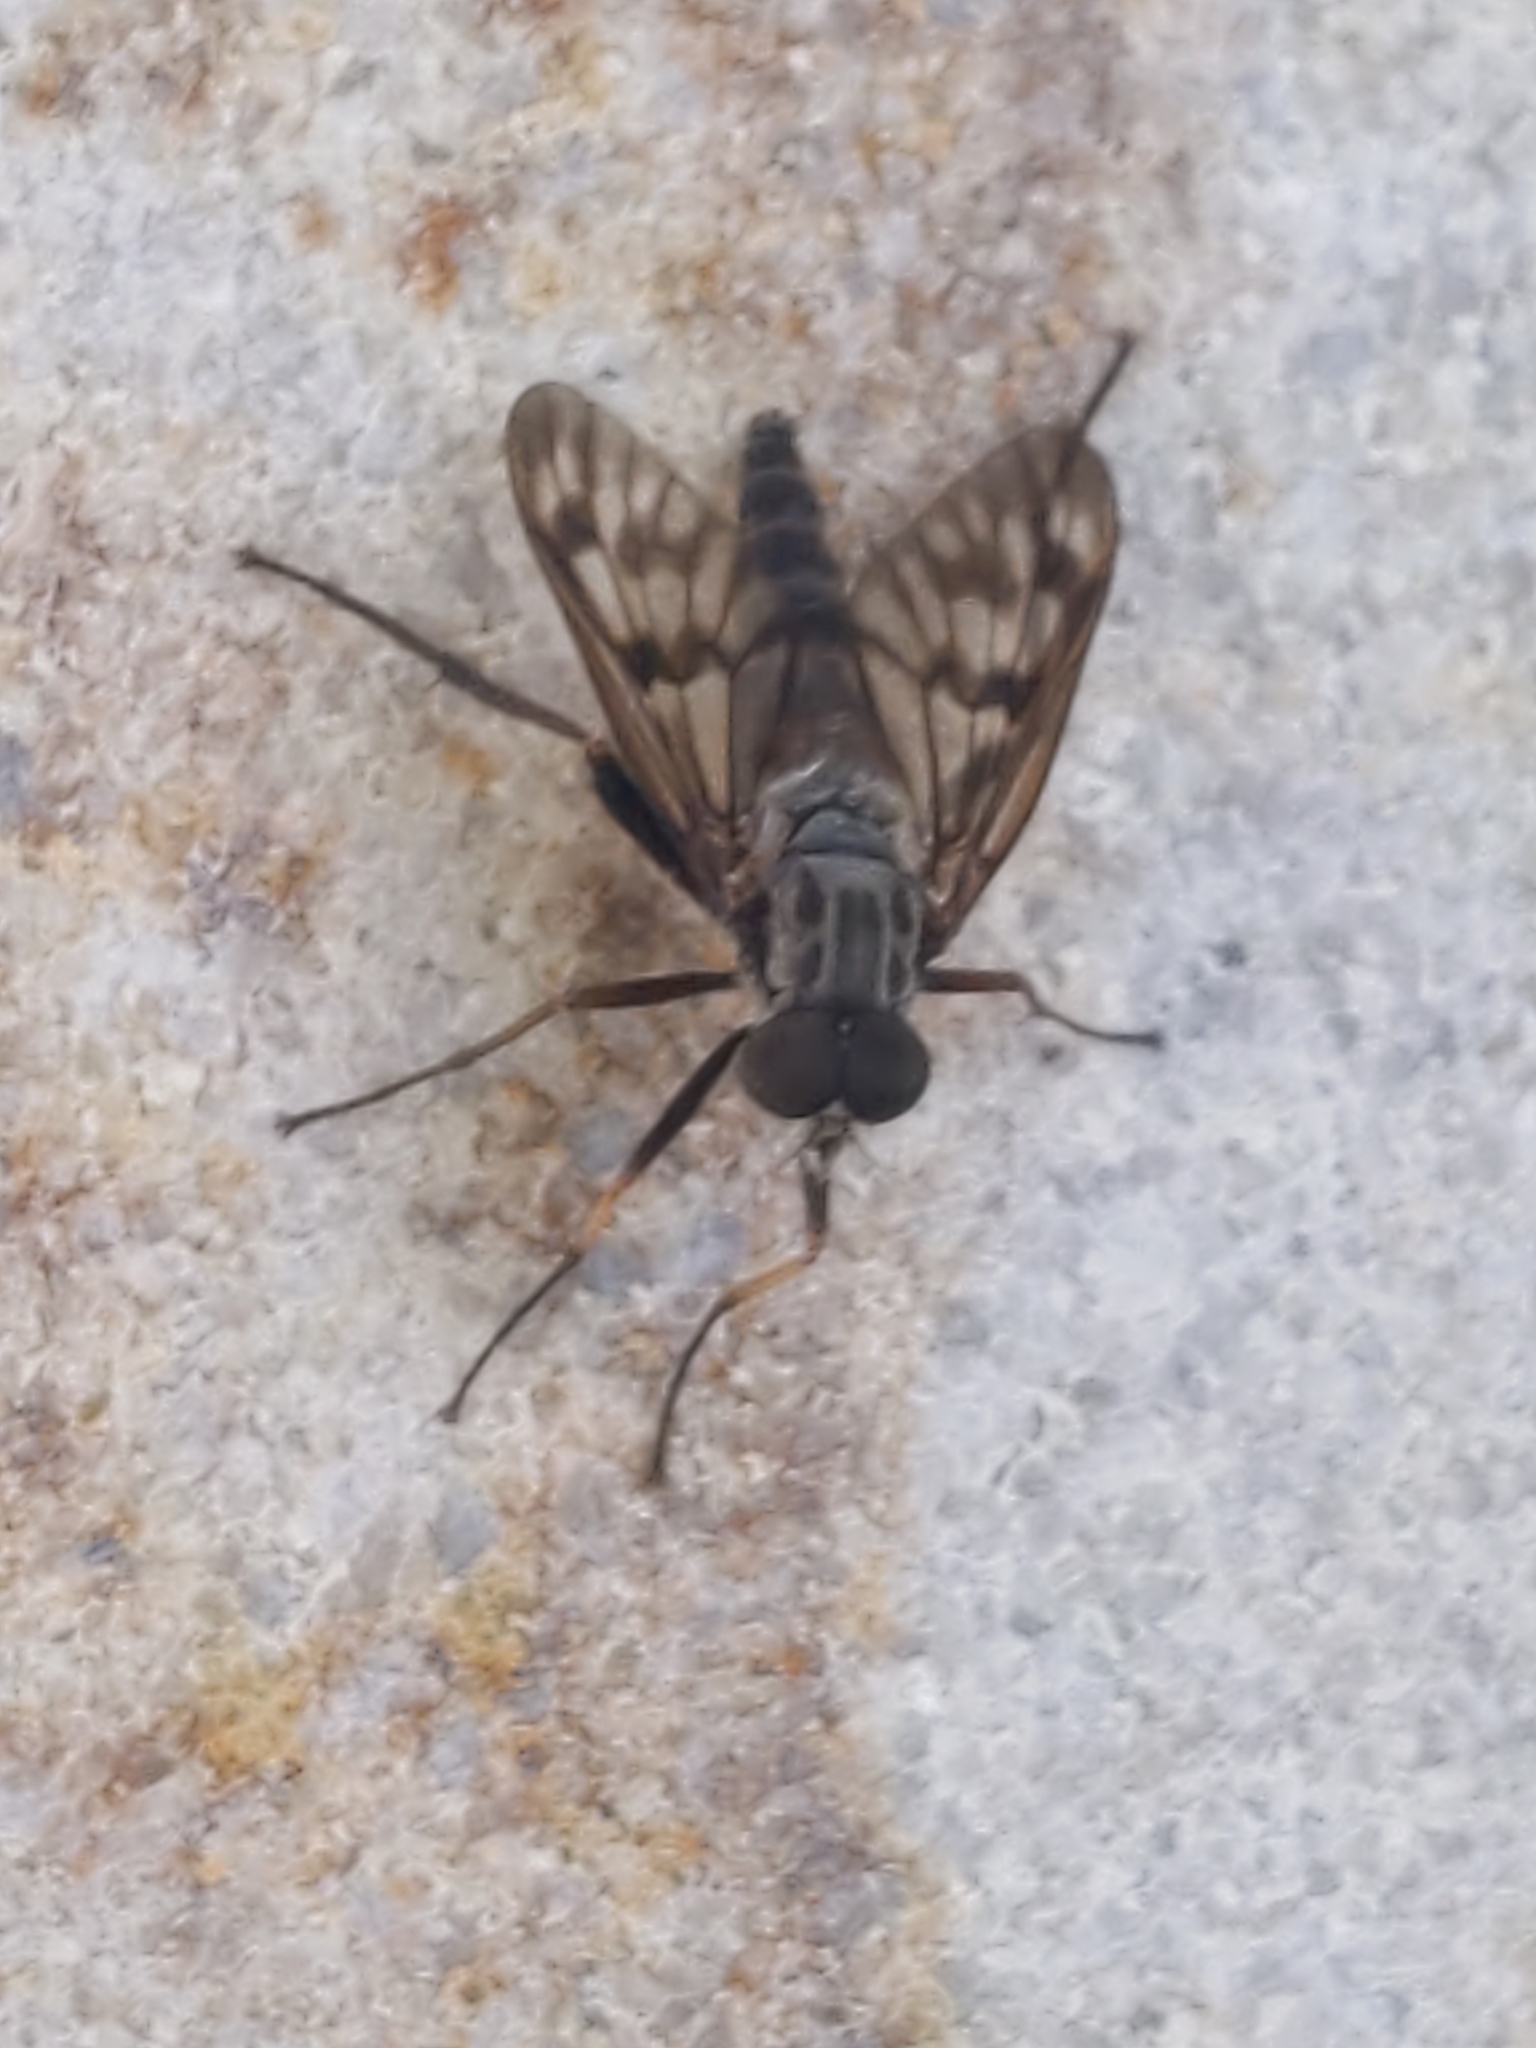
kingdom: Animalia
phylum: Arthropoda
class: Insecta
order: Diptera
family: Rhagionidae
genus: Rhagio
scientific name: Rhagio mystaceus
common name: Common snipe fly
